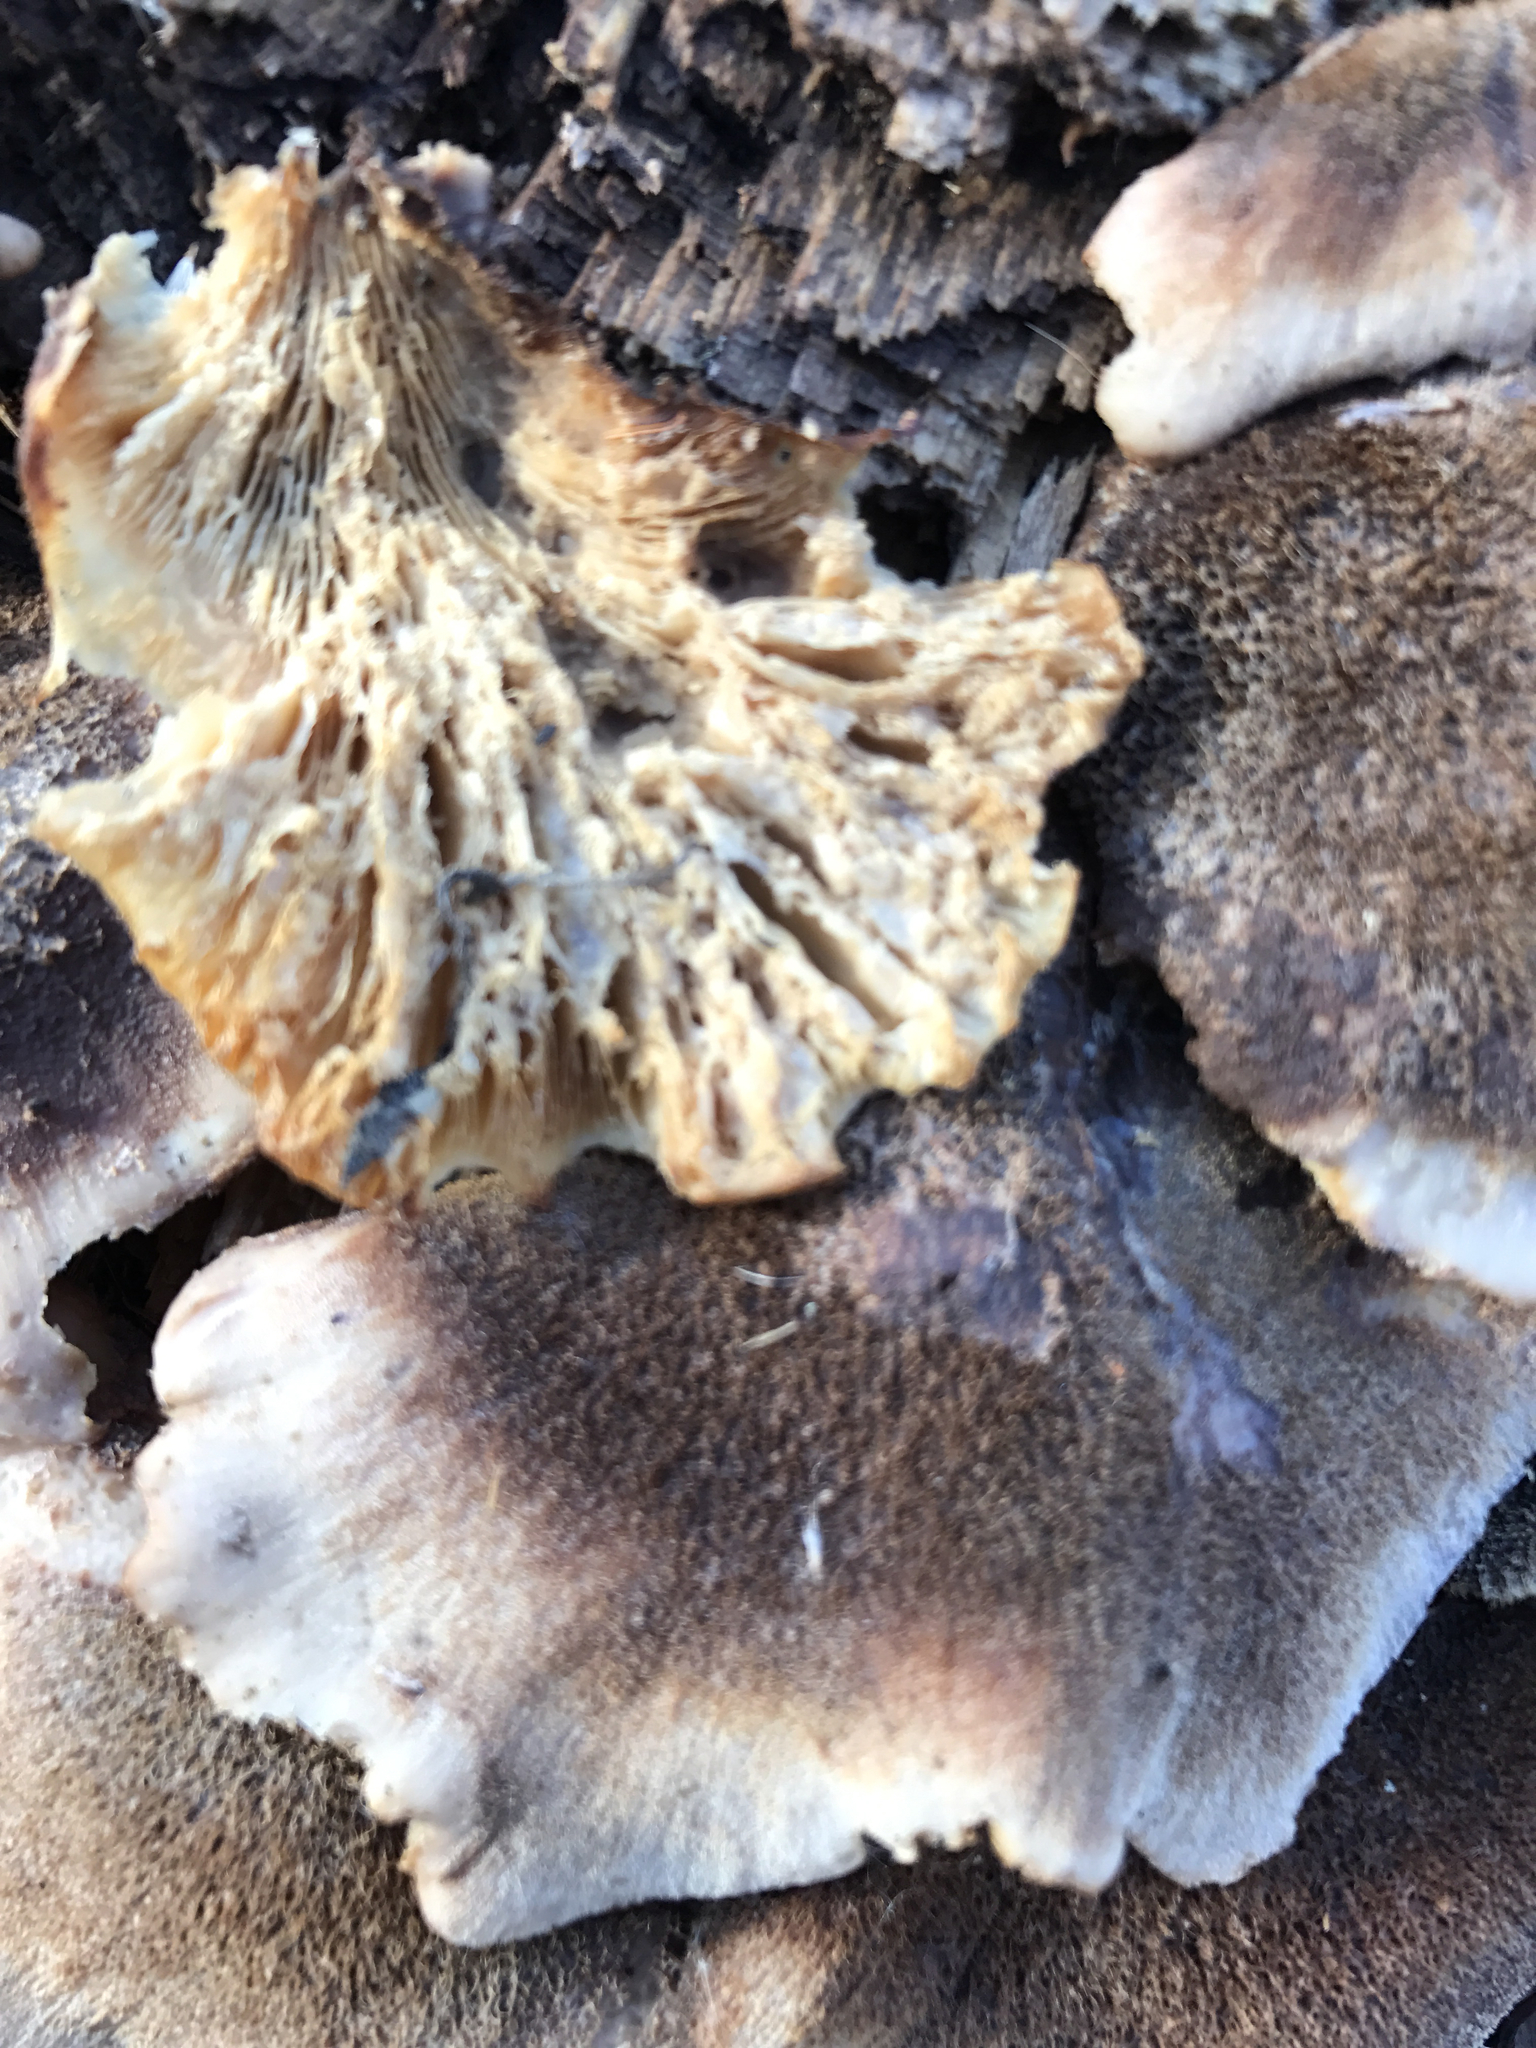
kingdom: Fungi
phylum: Basidiomycota
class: Agaricomycetes
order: Russulales
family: Auriscalpiaceae
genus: Lentinellus
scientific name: Lentinellus ursinus
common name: Bear lentinus
